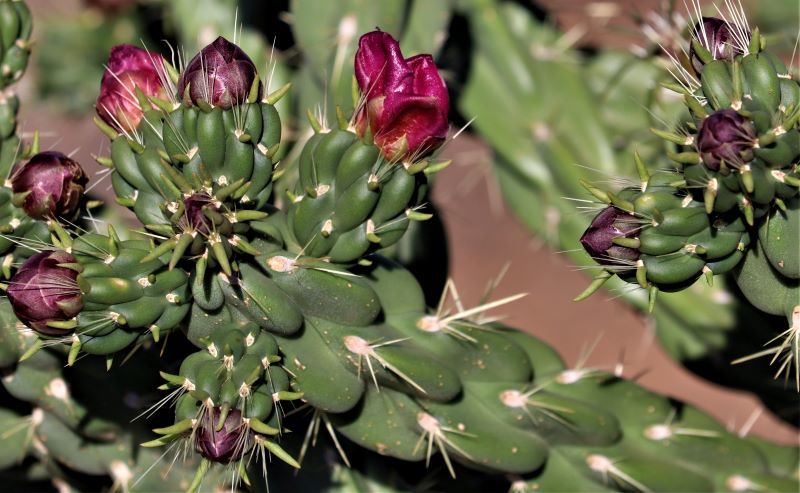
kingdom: Plantae
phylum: Tracheophyta
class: Magnoliopsida
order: Caryophyllales
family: Cactaceae
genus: Cylindropuntia
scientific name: Cylindropuntia imbricata
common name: Candelabrum cactus
